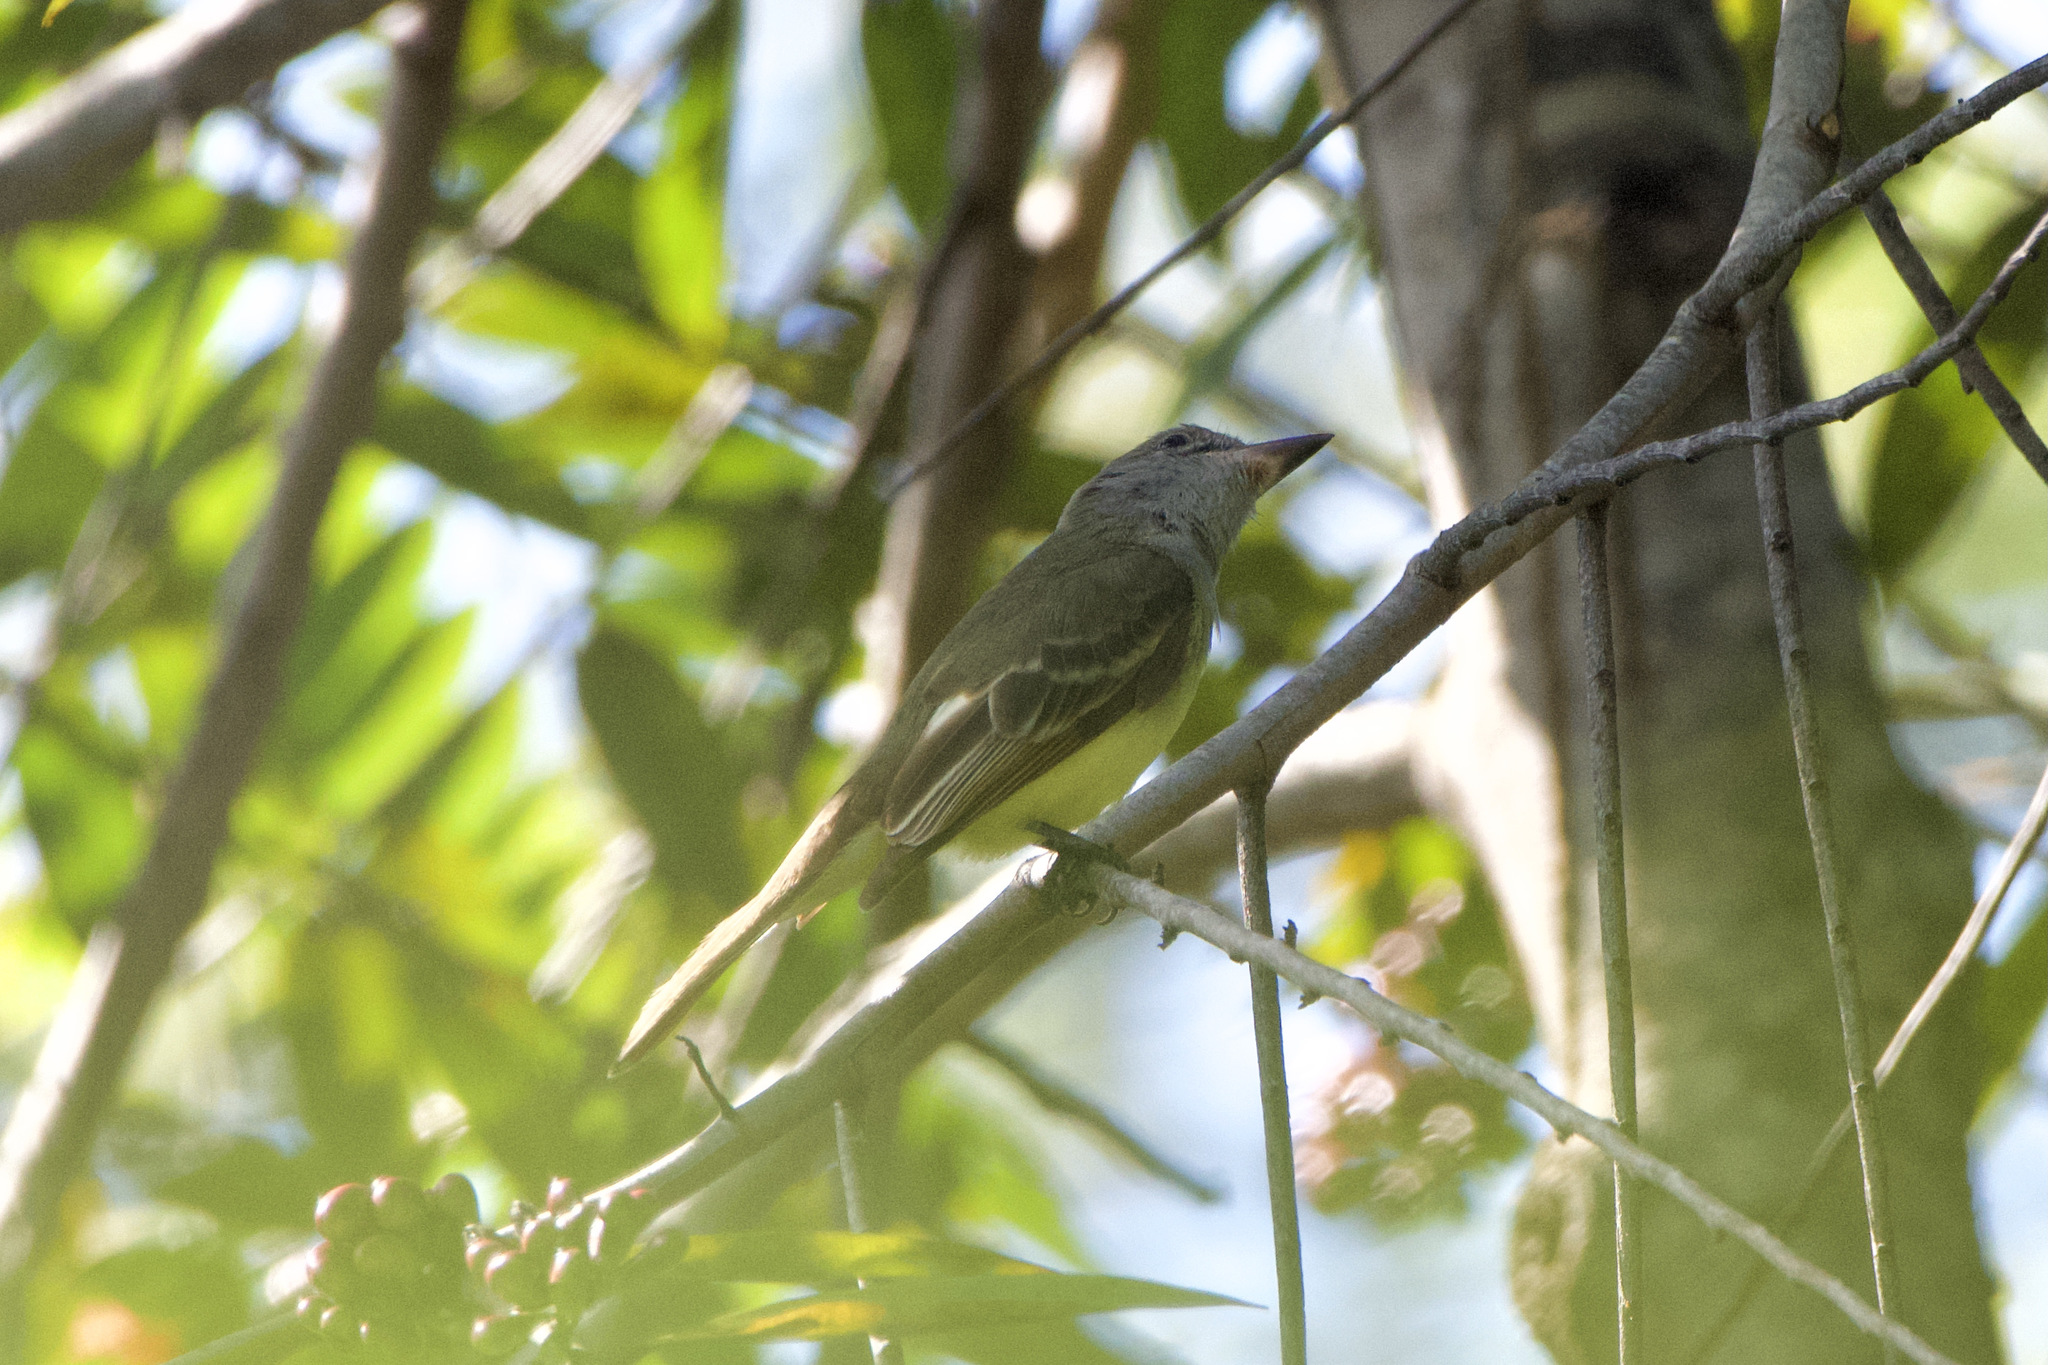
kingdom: Animalia
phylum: Chordata
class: Aves
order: Passeriformes
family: Tyrannidae
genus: Myiarchus
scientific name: Myiarchus panamensis
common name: Panama flycatcher
